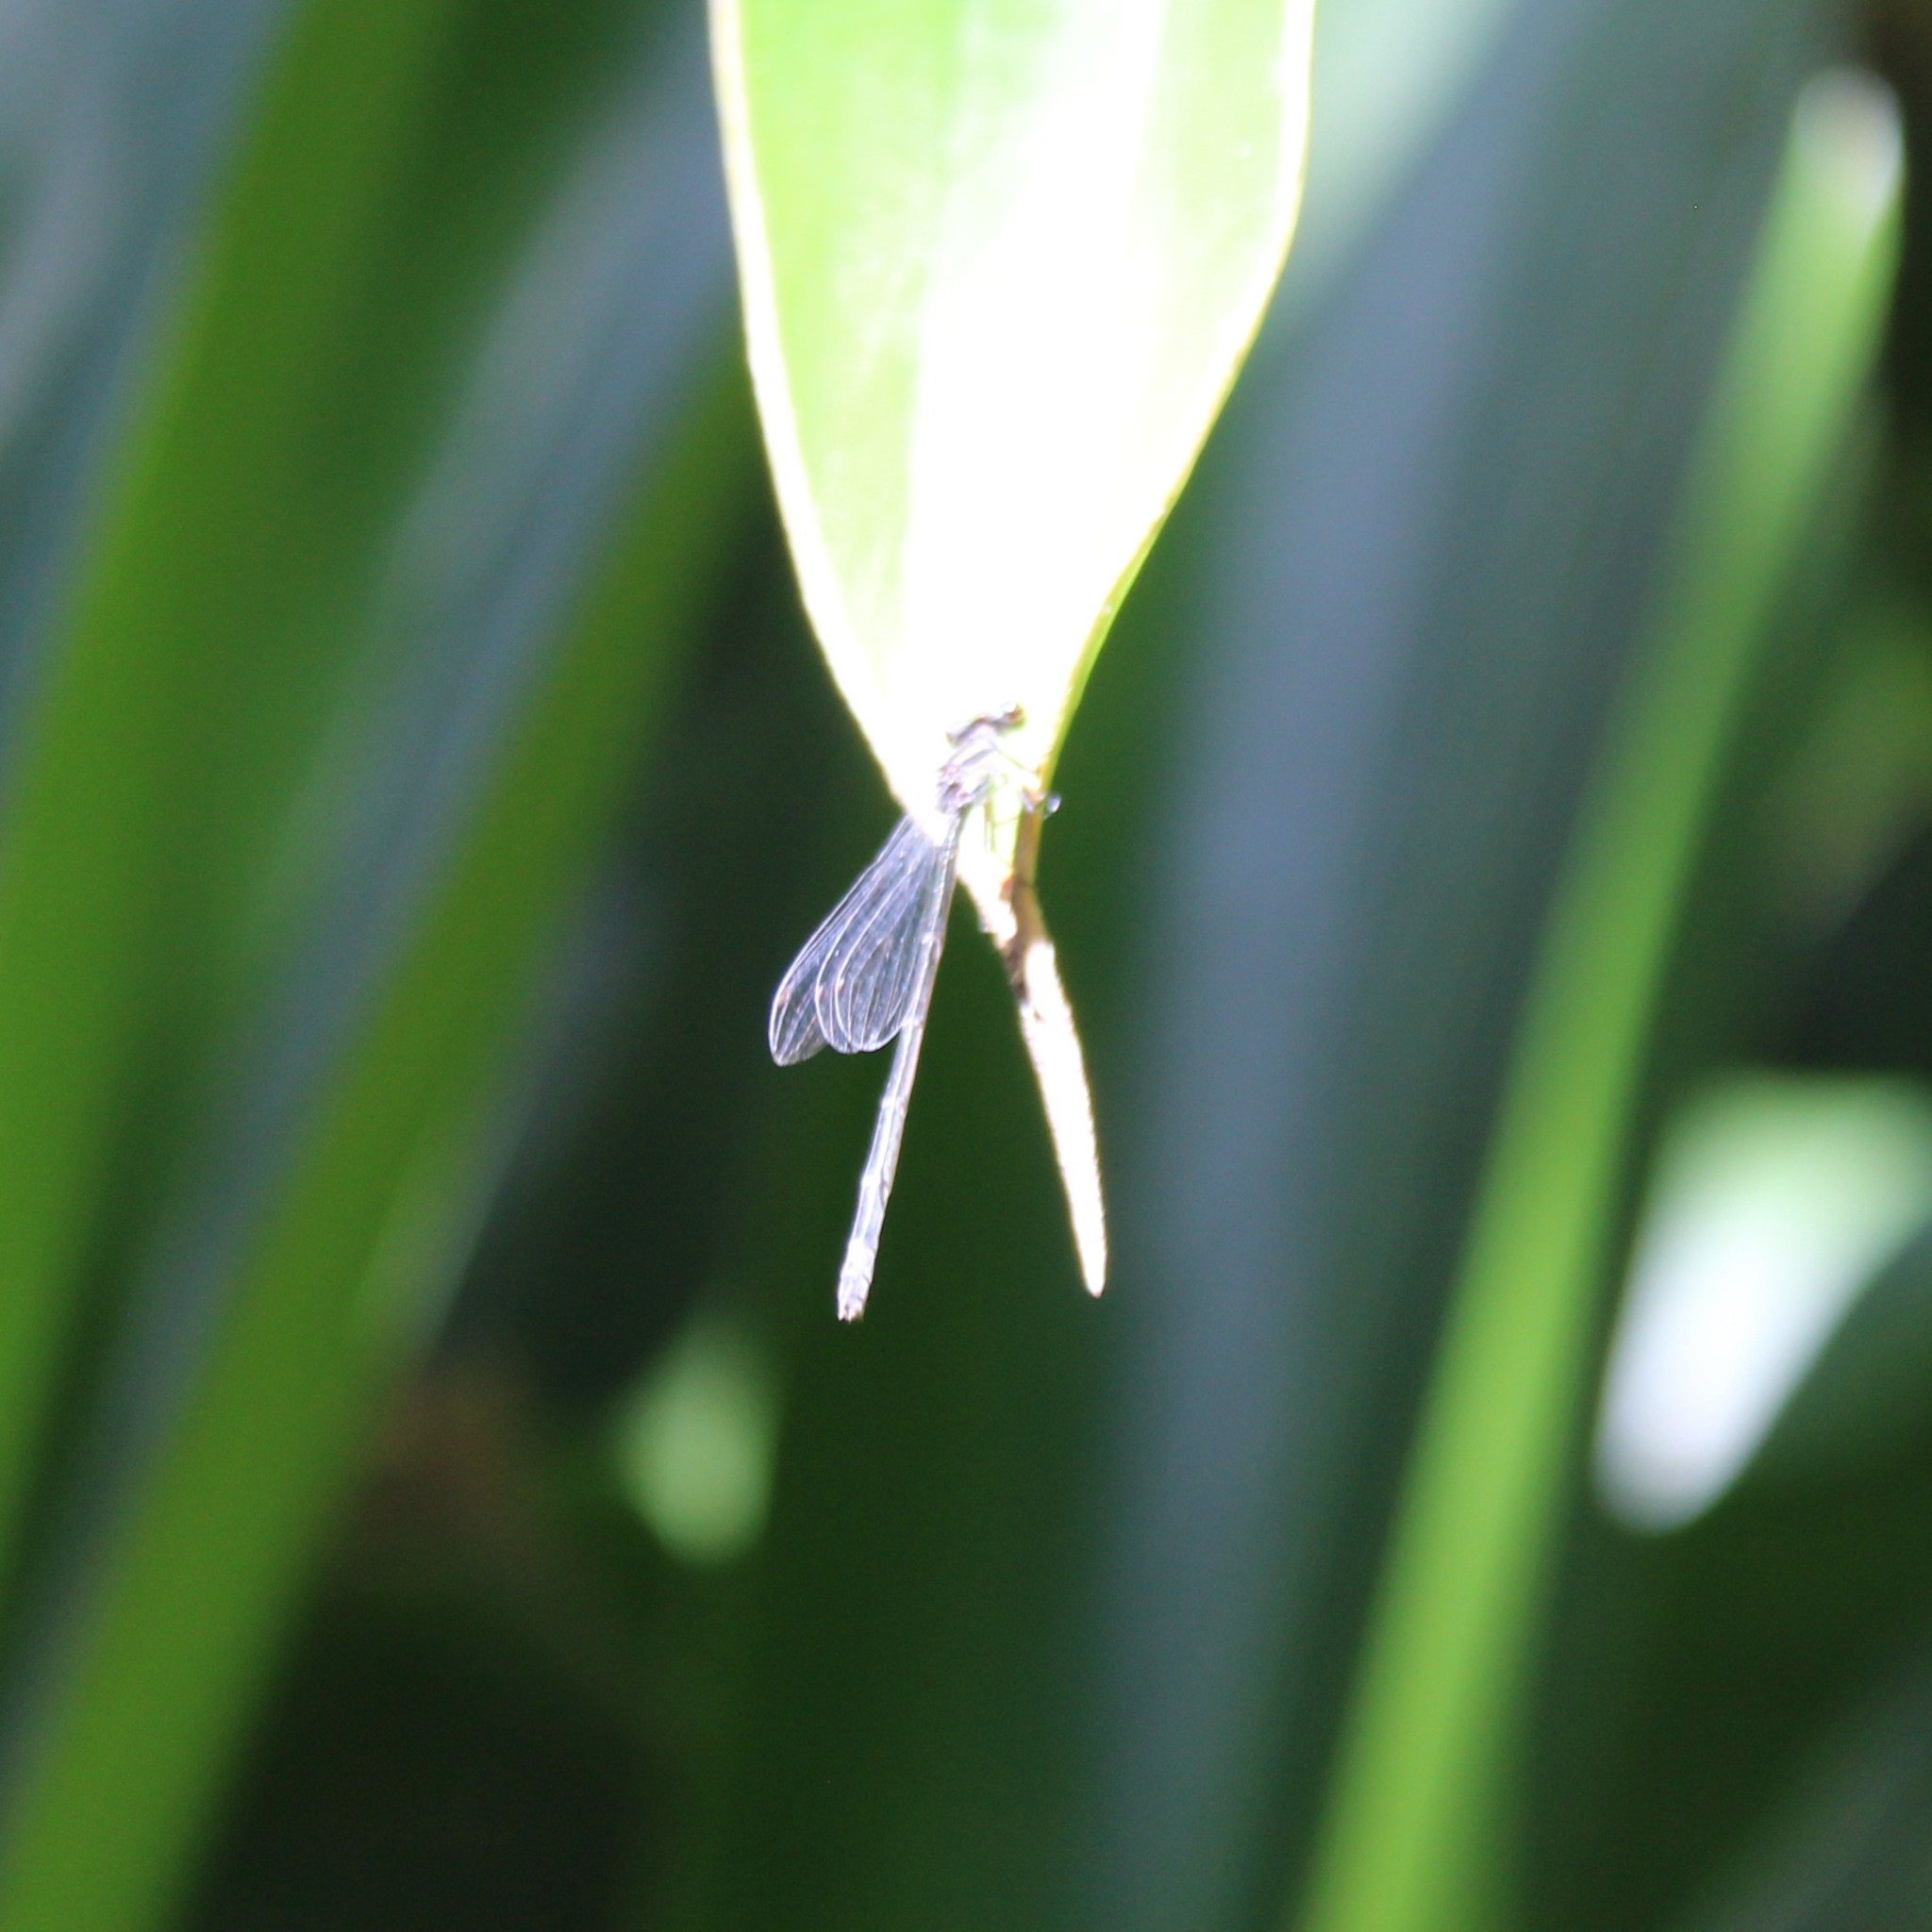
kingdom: Animalia
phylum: Arthropoda
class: Insecta
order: Odonata
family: Coenagrionidae
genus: Enallagma
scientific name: Enallagma cardenium
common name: Purple bluet
